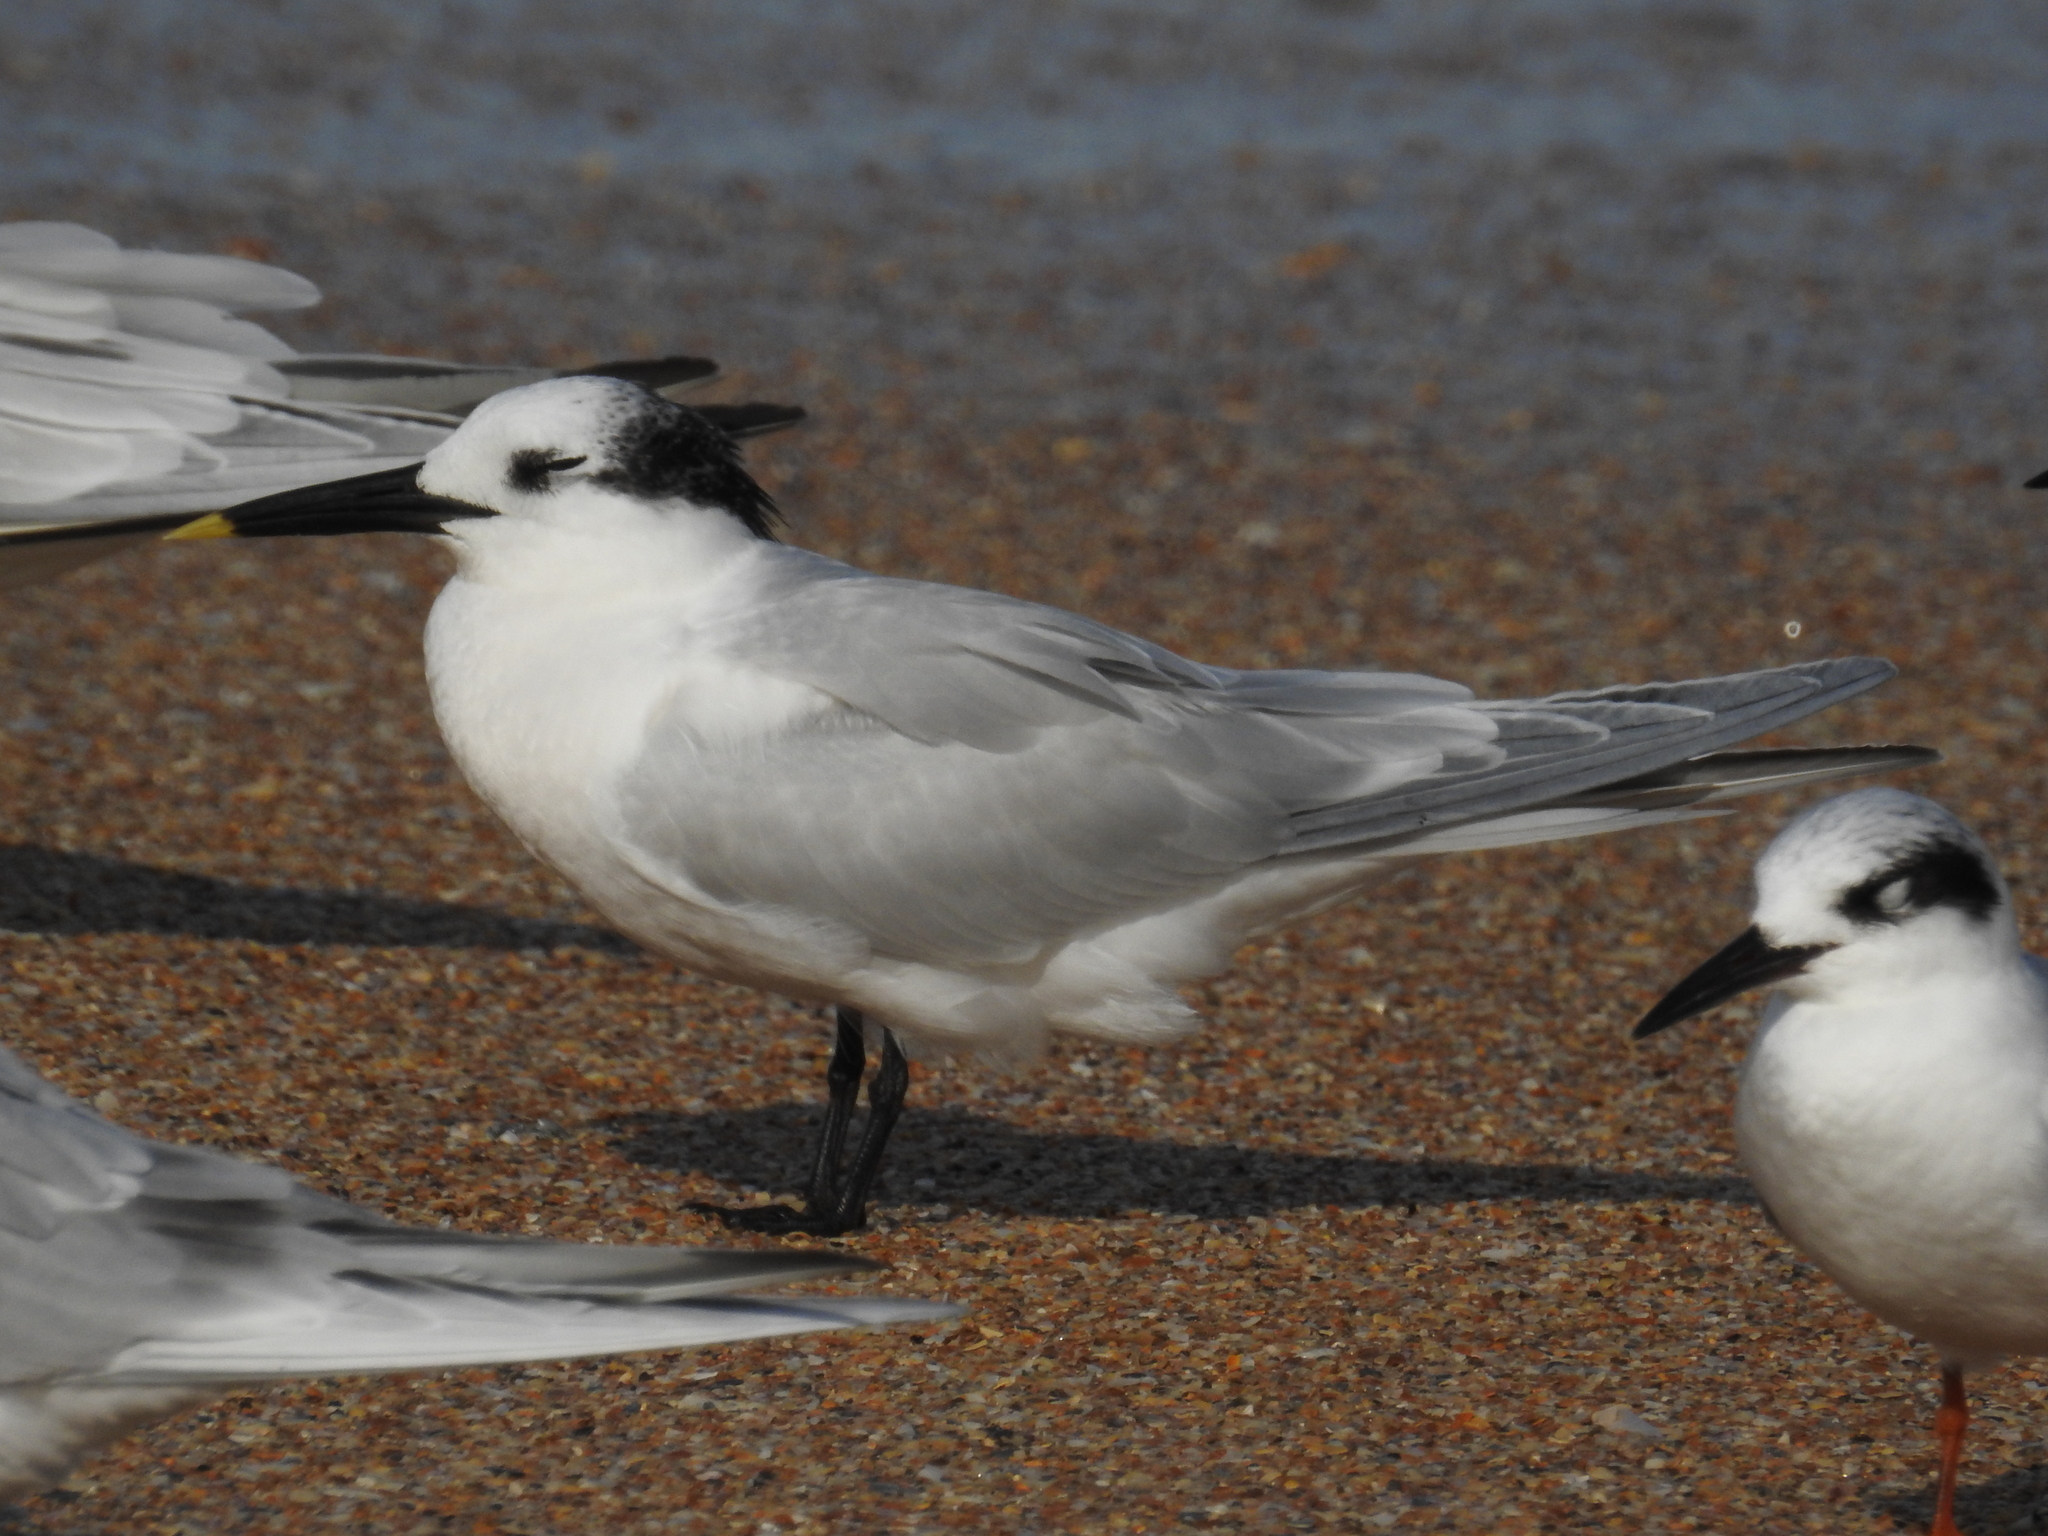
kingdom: Animalia
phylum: Chordata
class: Aves
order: Charadriiformes
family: Laridae
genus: Thalasseus
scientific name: Thalasseus sandvicensis
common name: Sandwich tern
